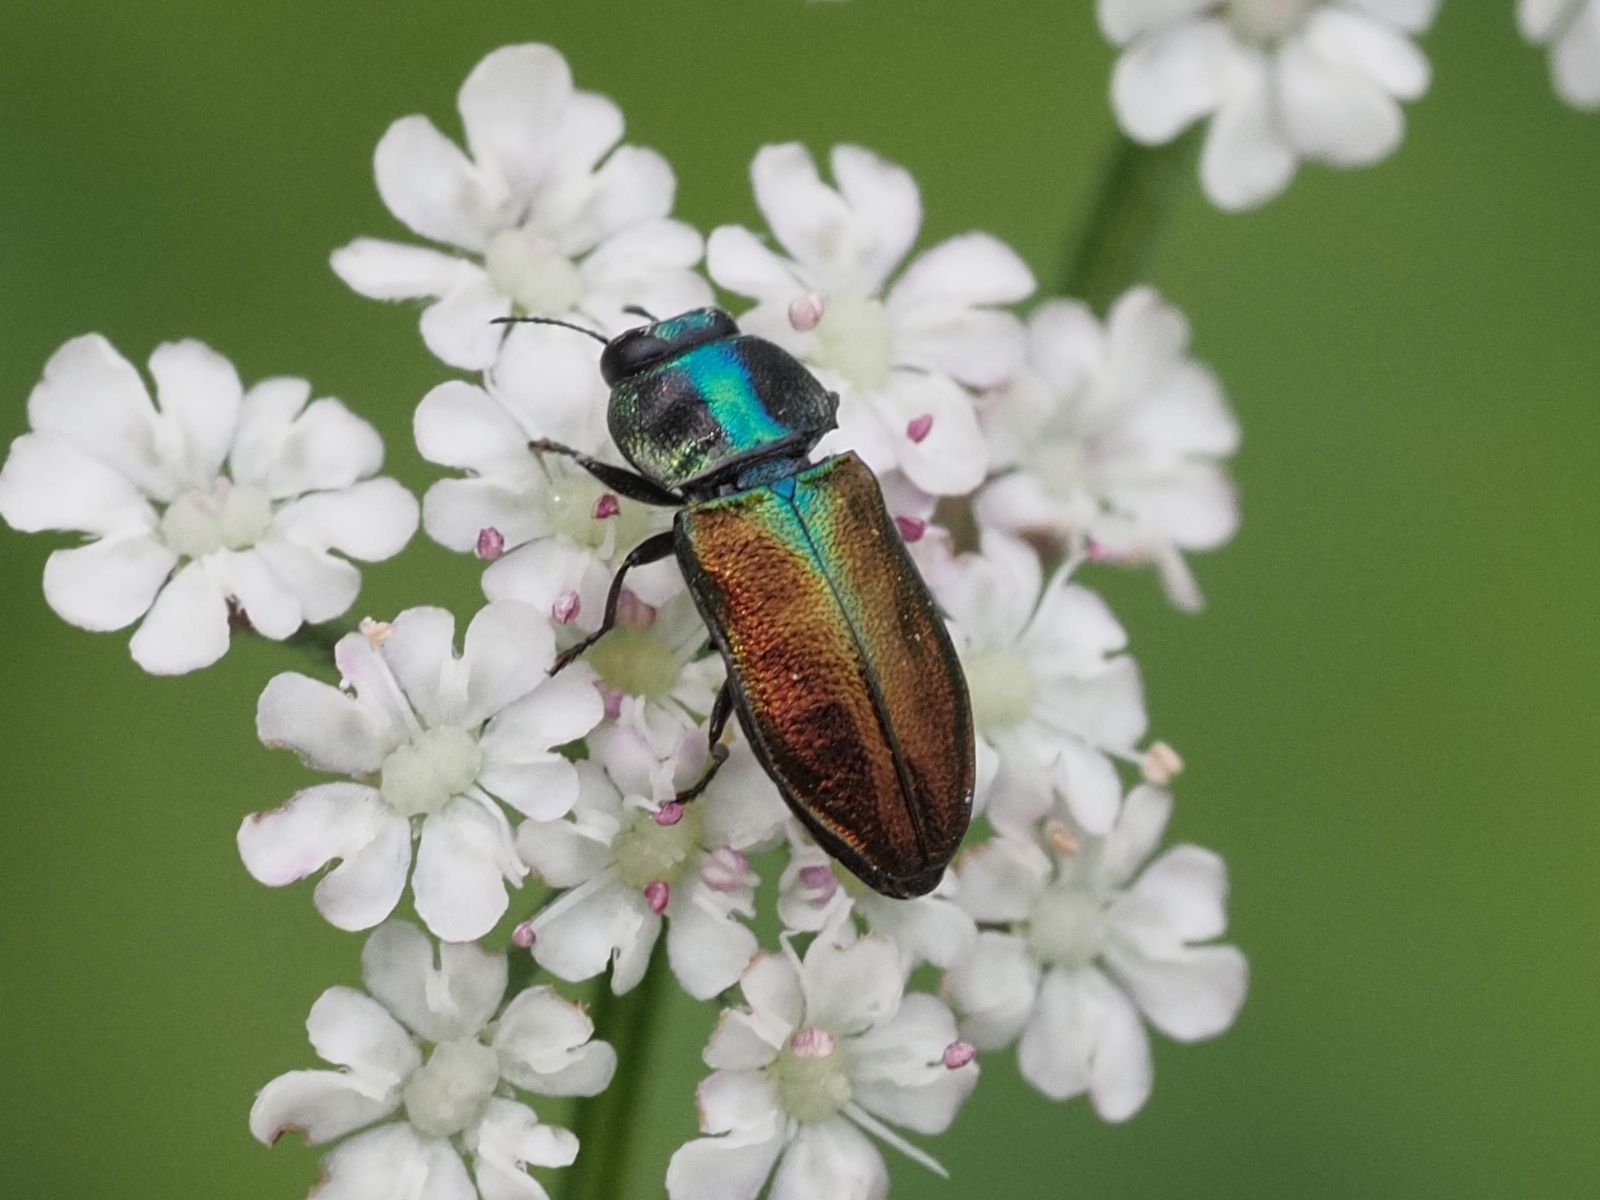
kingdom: Animalia
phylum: Arthropoda
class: Insecta
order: Coleoptera
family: Buprestidae
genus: Anthaxia
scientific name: Anthaxia podolica
